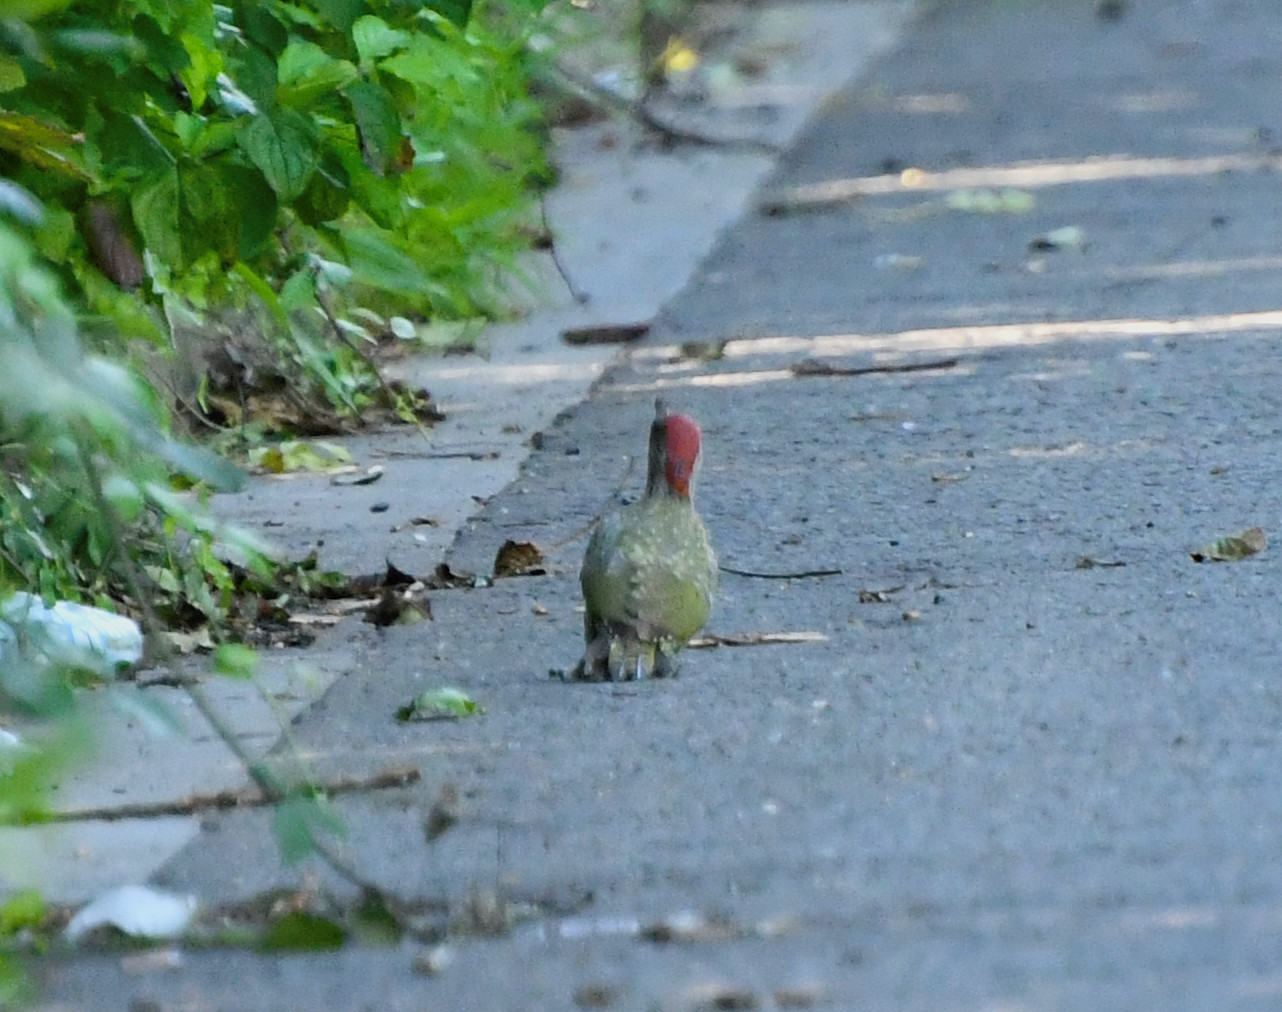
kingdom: Animalia
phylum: Chordata
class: Aves
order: Piciformes
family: Picidae
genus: Picus
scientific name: Picus viridis
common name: European green woodpecker
